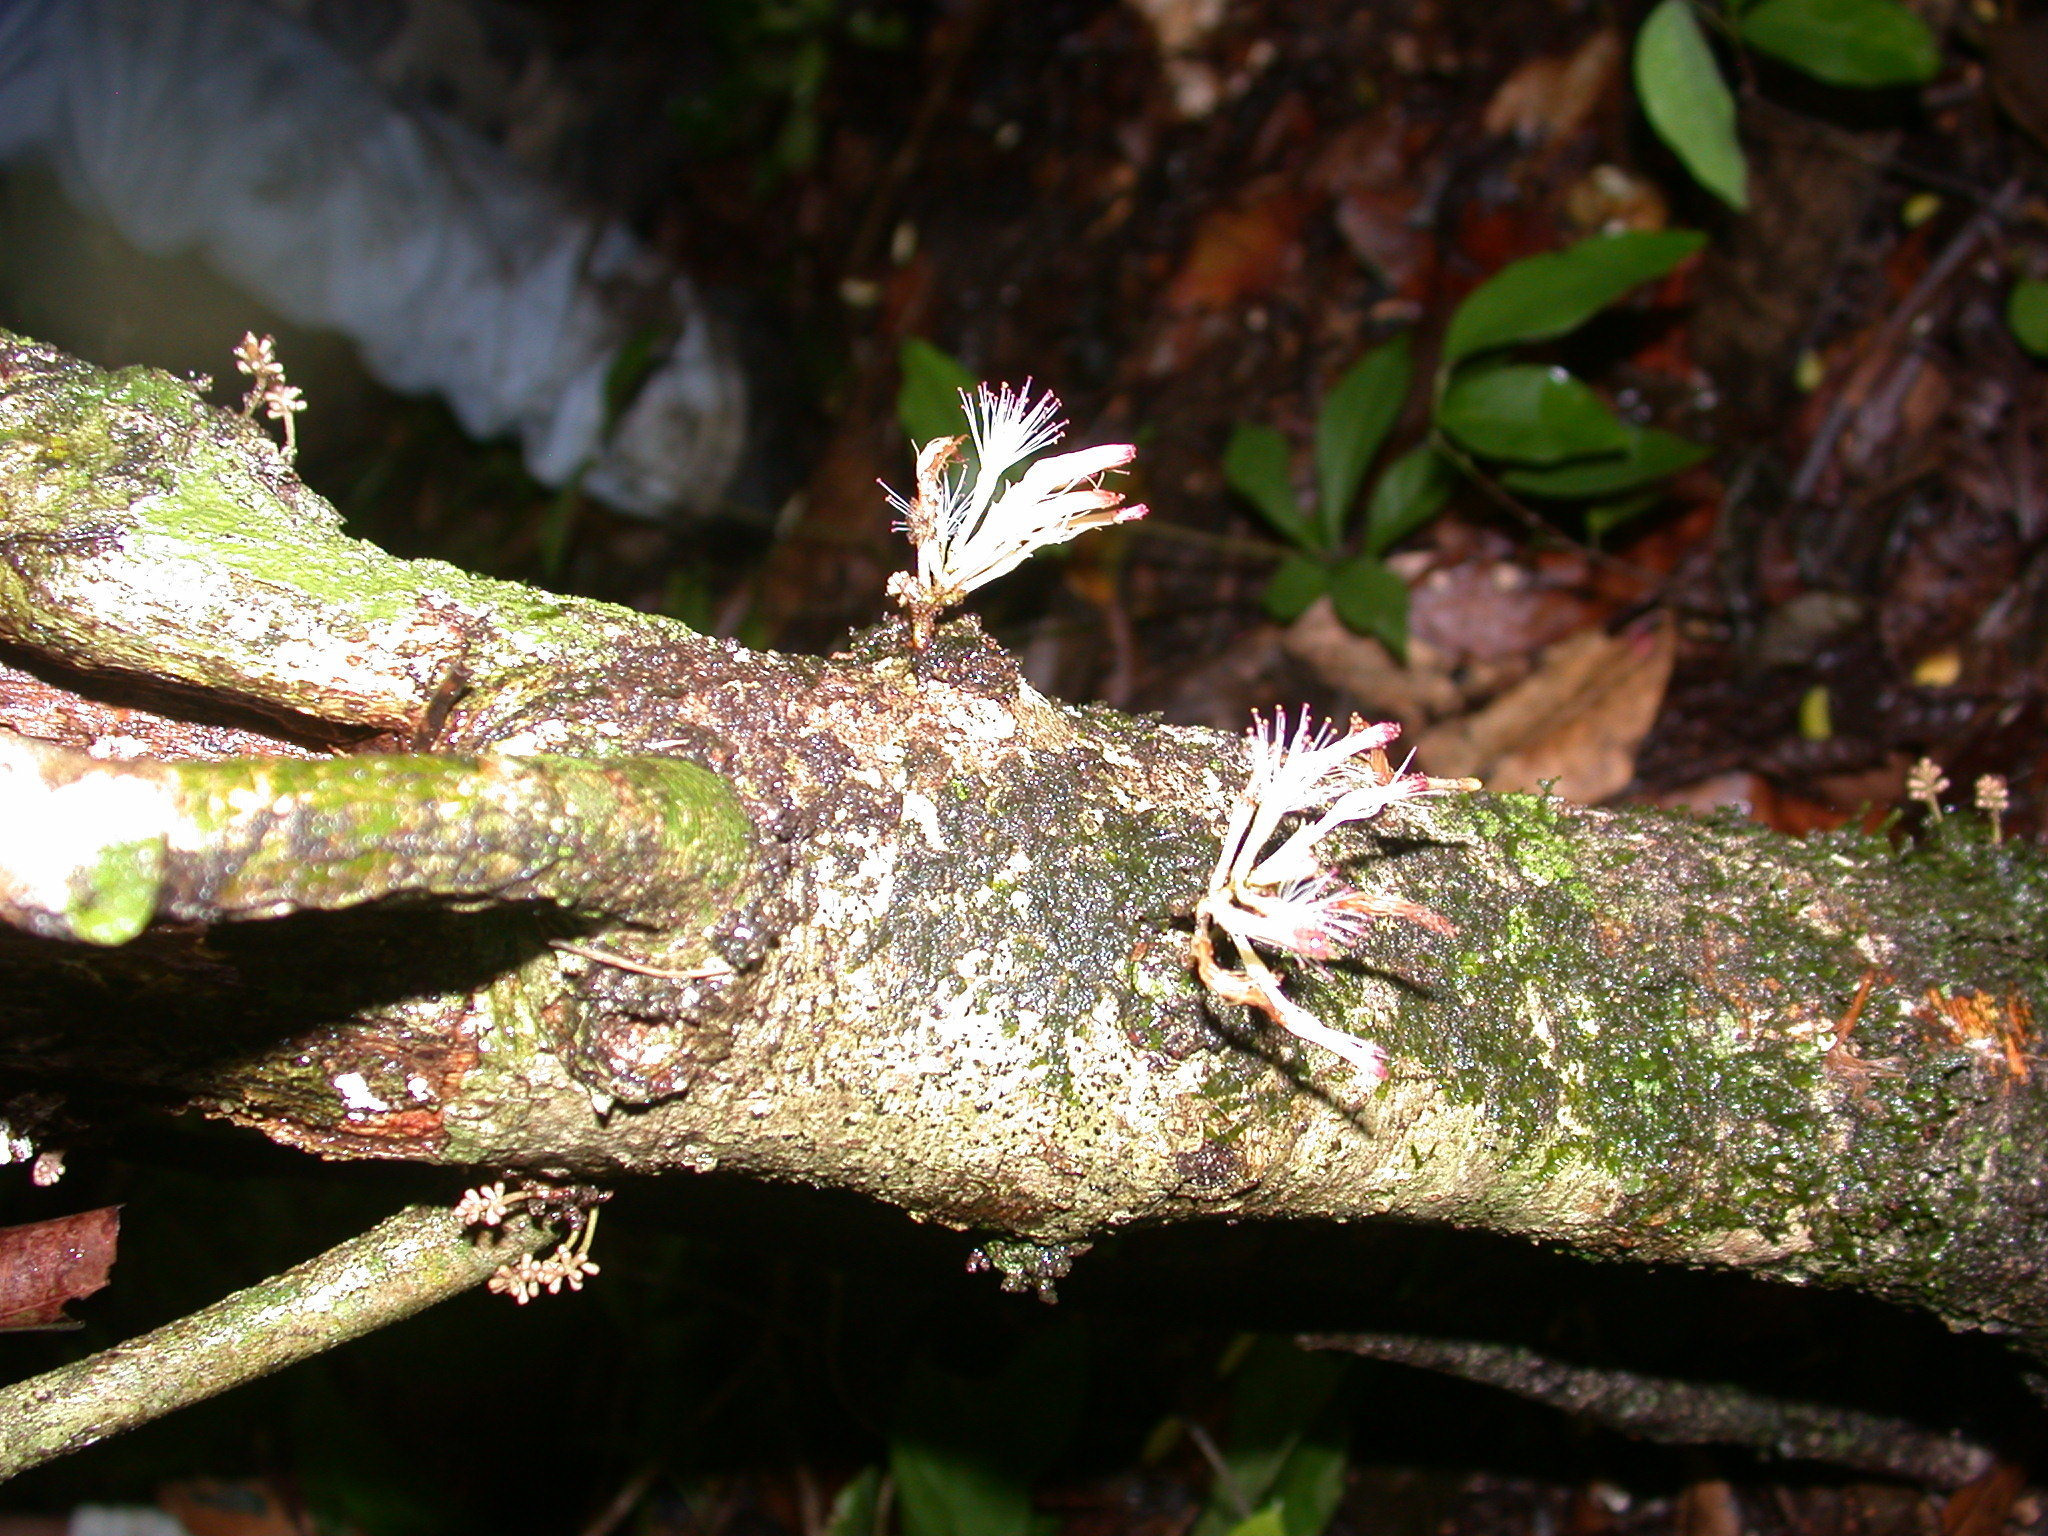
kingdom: Plantae
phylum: Tracheophyta
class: Magnoliopsida
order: Fabales
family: Fabaceae
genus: Zygia
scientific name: Zygia cognata
